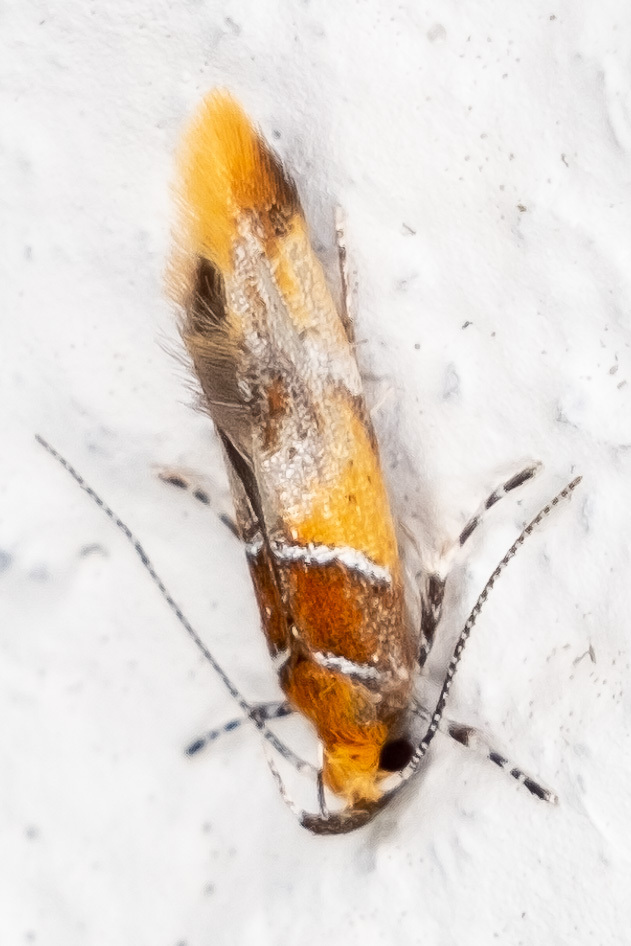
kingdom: Animalia
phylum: Arthropoda
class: Insecta
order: Lepidoptera
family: Oecophoridae
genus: Callima
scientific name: Callima argenticinctella
